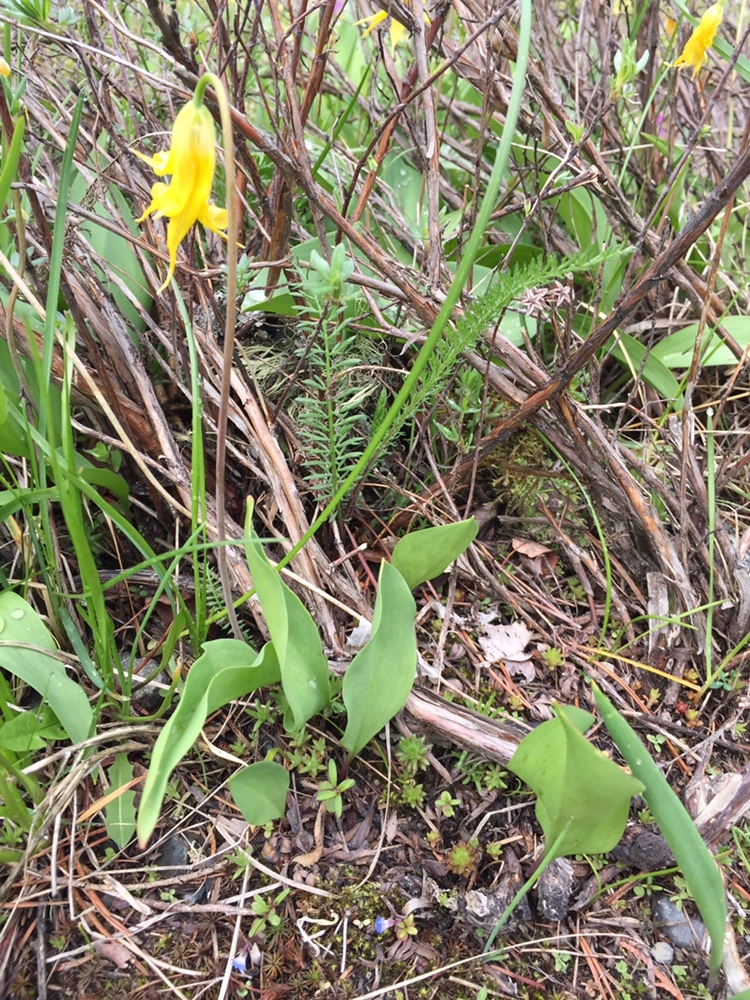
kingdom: Plantae
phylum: Tracheophyta
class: Liliopsida
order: Liliales
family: Liliaceae
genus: Erythronium
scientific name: Erythronium grandiflorum
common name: Avalanche-lily
